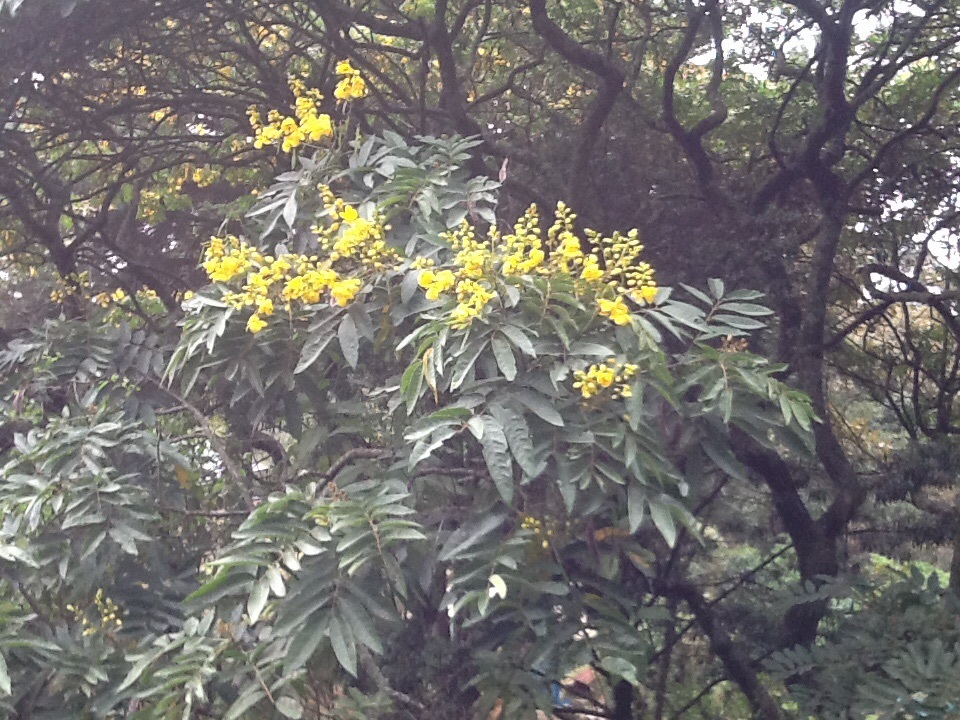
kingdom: Plantae
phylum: Tracheophyta
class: Magnoliopsida
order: Fabales
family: Fabaceae
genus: Senna
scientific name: Senna viarum
